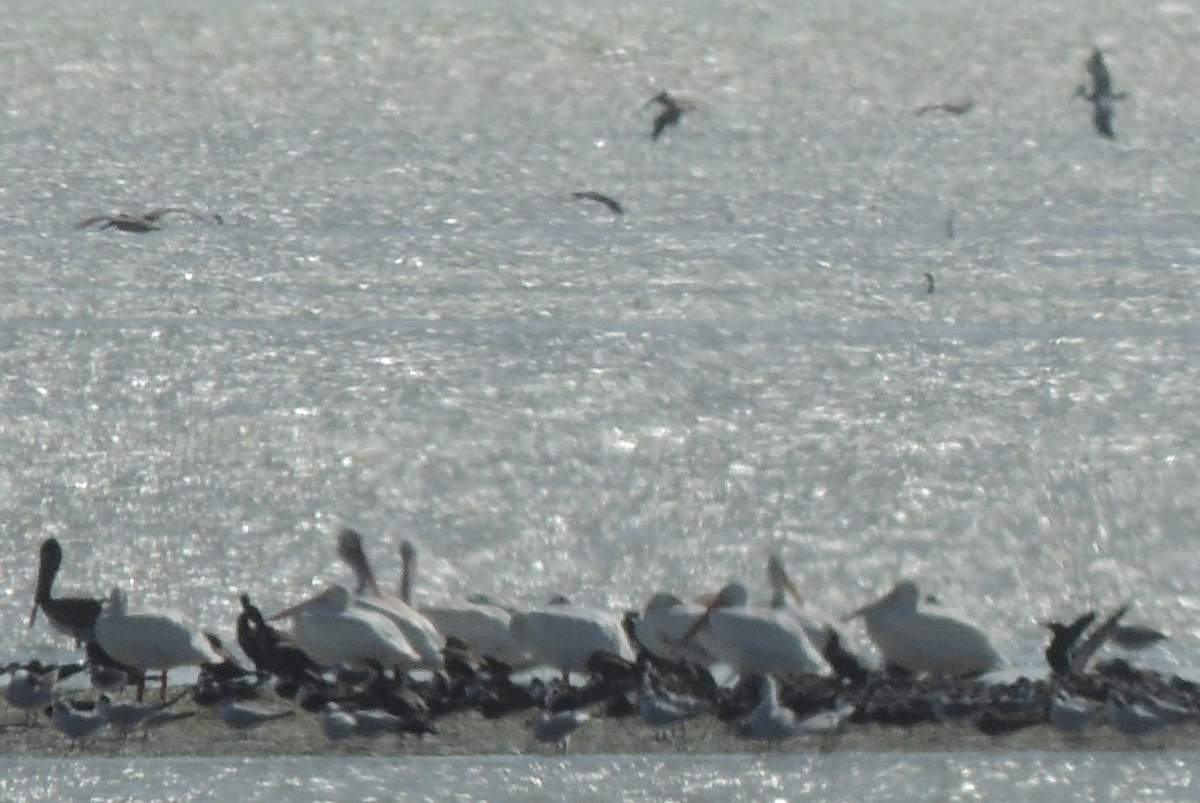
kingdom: Animalia
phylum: Chordata
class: Aves
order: Pelecaniformes
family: Pelecanidae
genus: Pelecanus
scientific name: Pelecanus occidentalis
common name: Brown pelican
